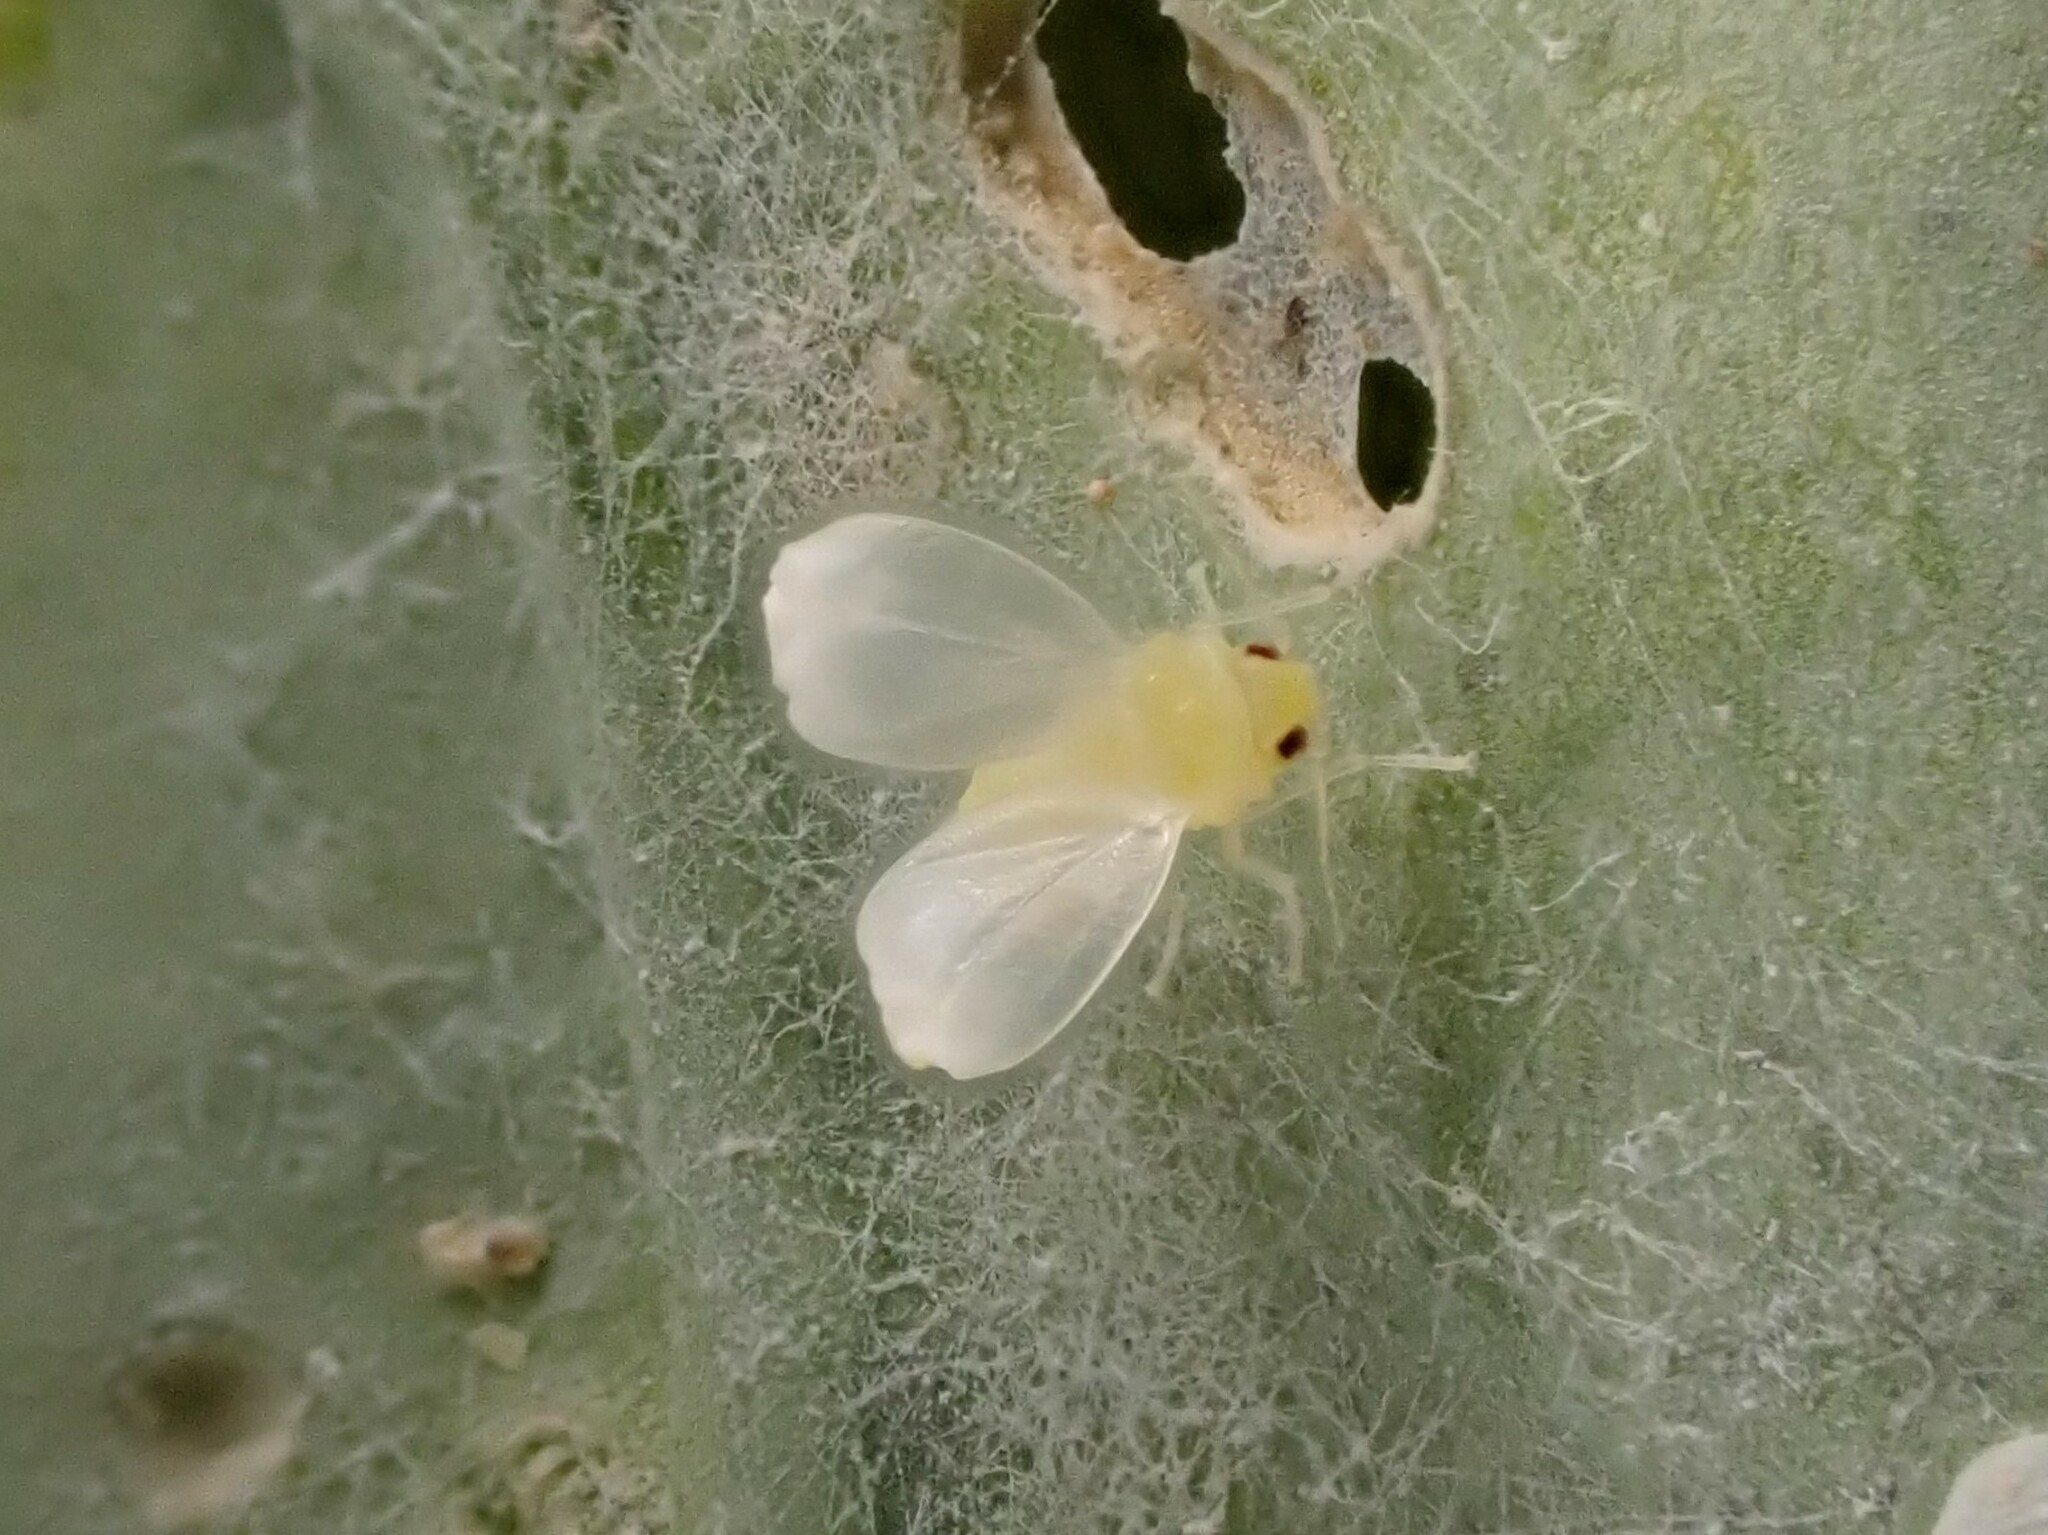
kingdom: Animalia
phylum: Arthropoda
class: Insecta
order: Hemiptera
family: Aleyrodidae
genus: Aleyrodes
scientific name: Aleyrodes proletella
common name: Cabbage whitefly
